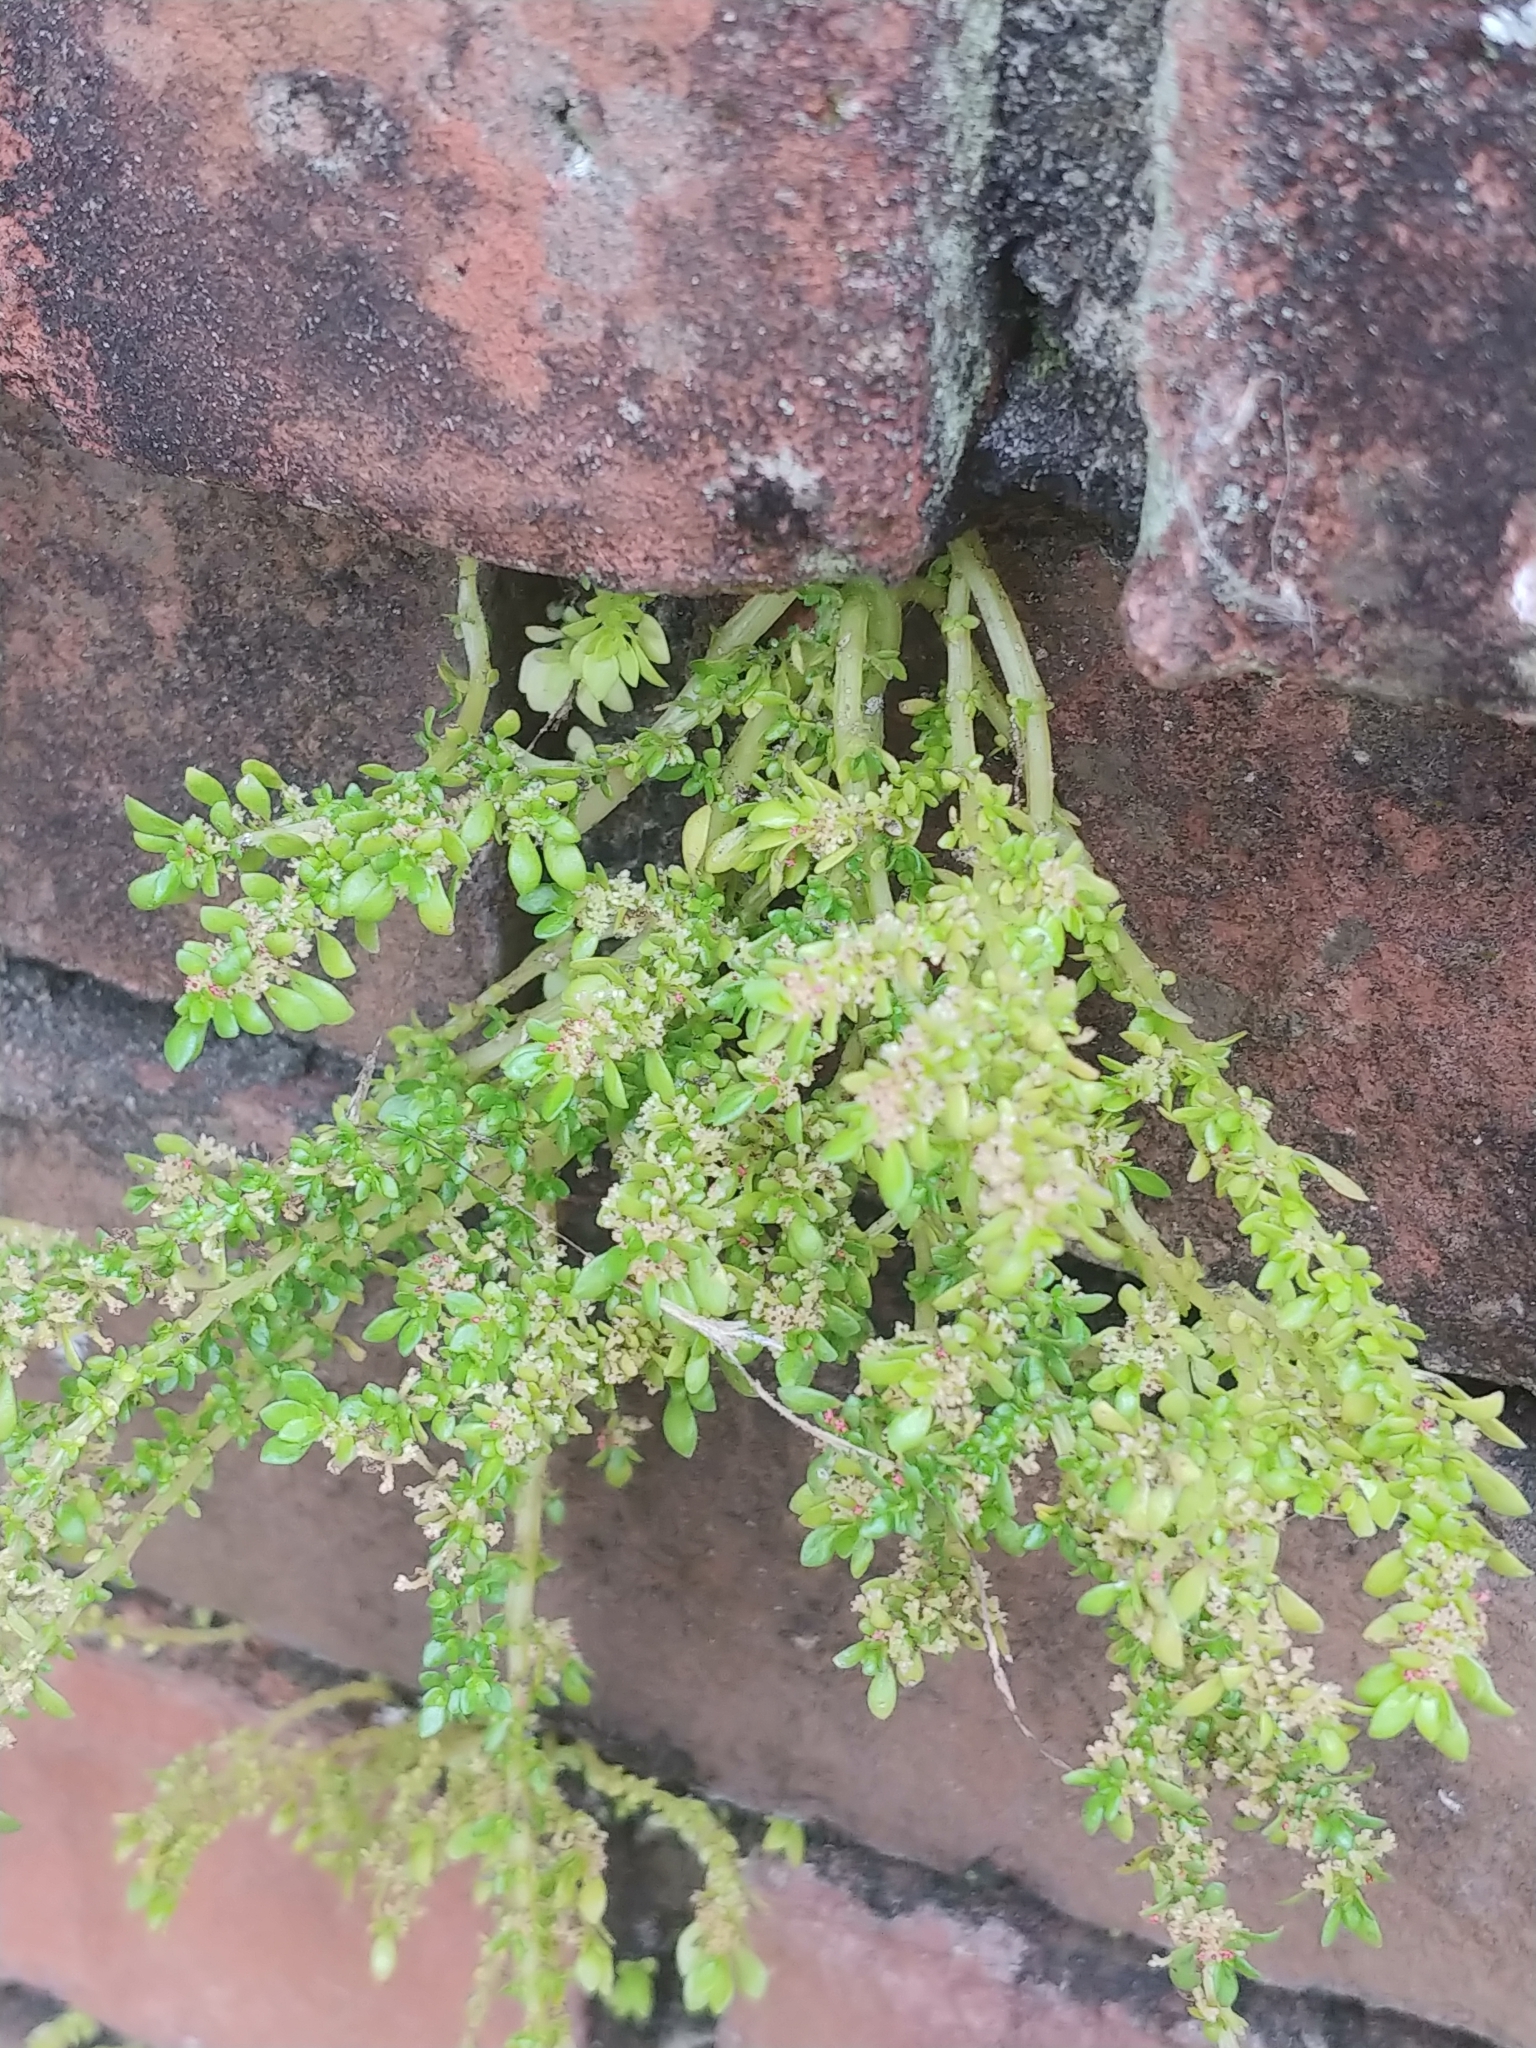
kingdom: Plantae
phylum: Tracheophyta
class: Magnoliopsida
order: Rosales
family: Urticaceae
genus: Pilea
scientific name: Pilea microphylla
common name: Artillery-plant
